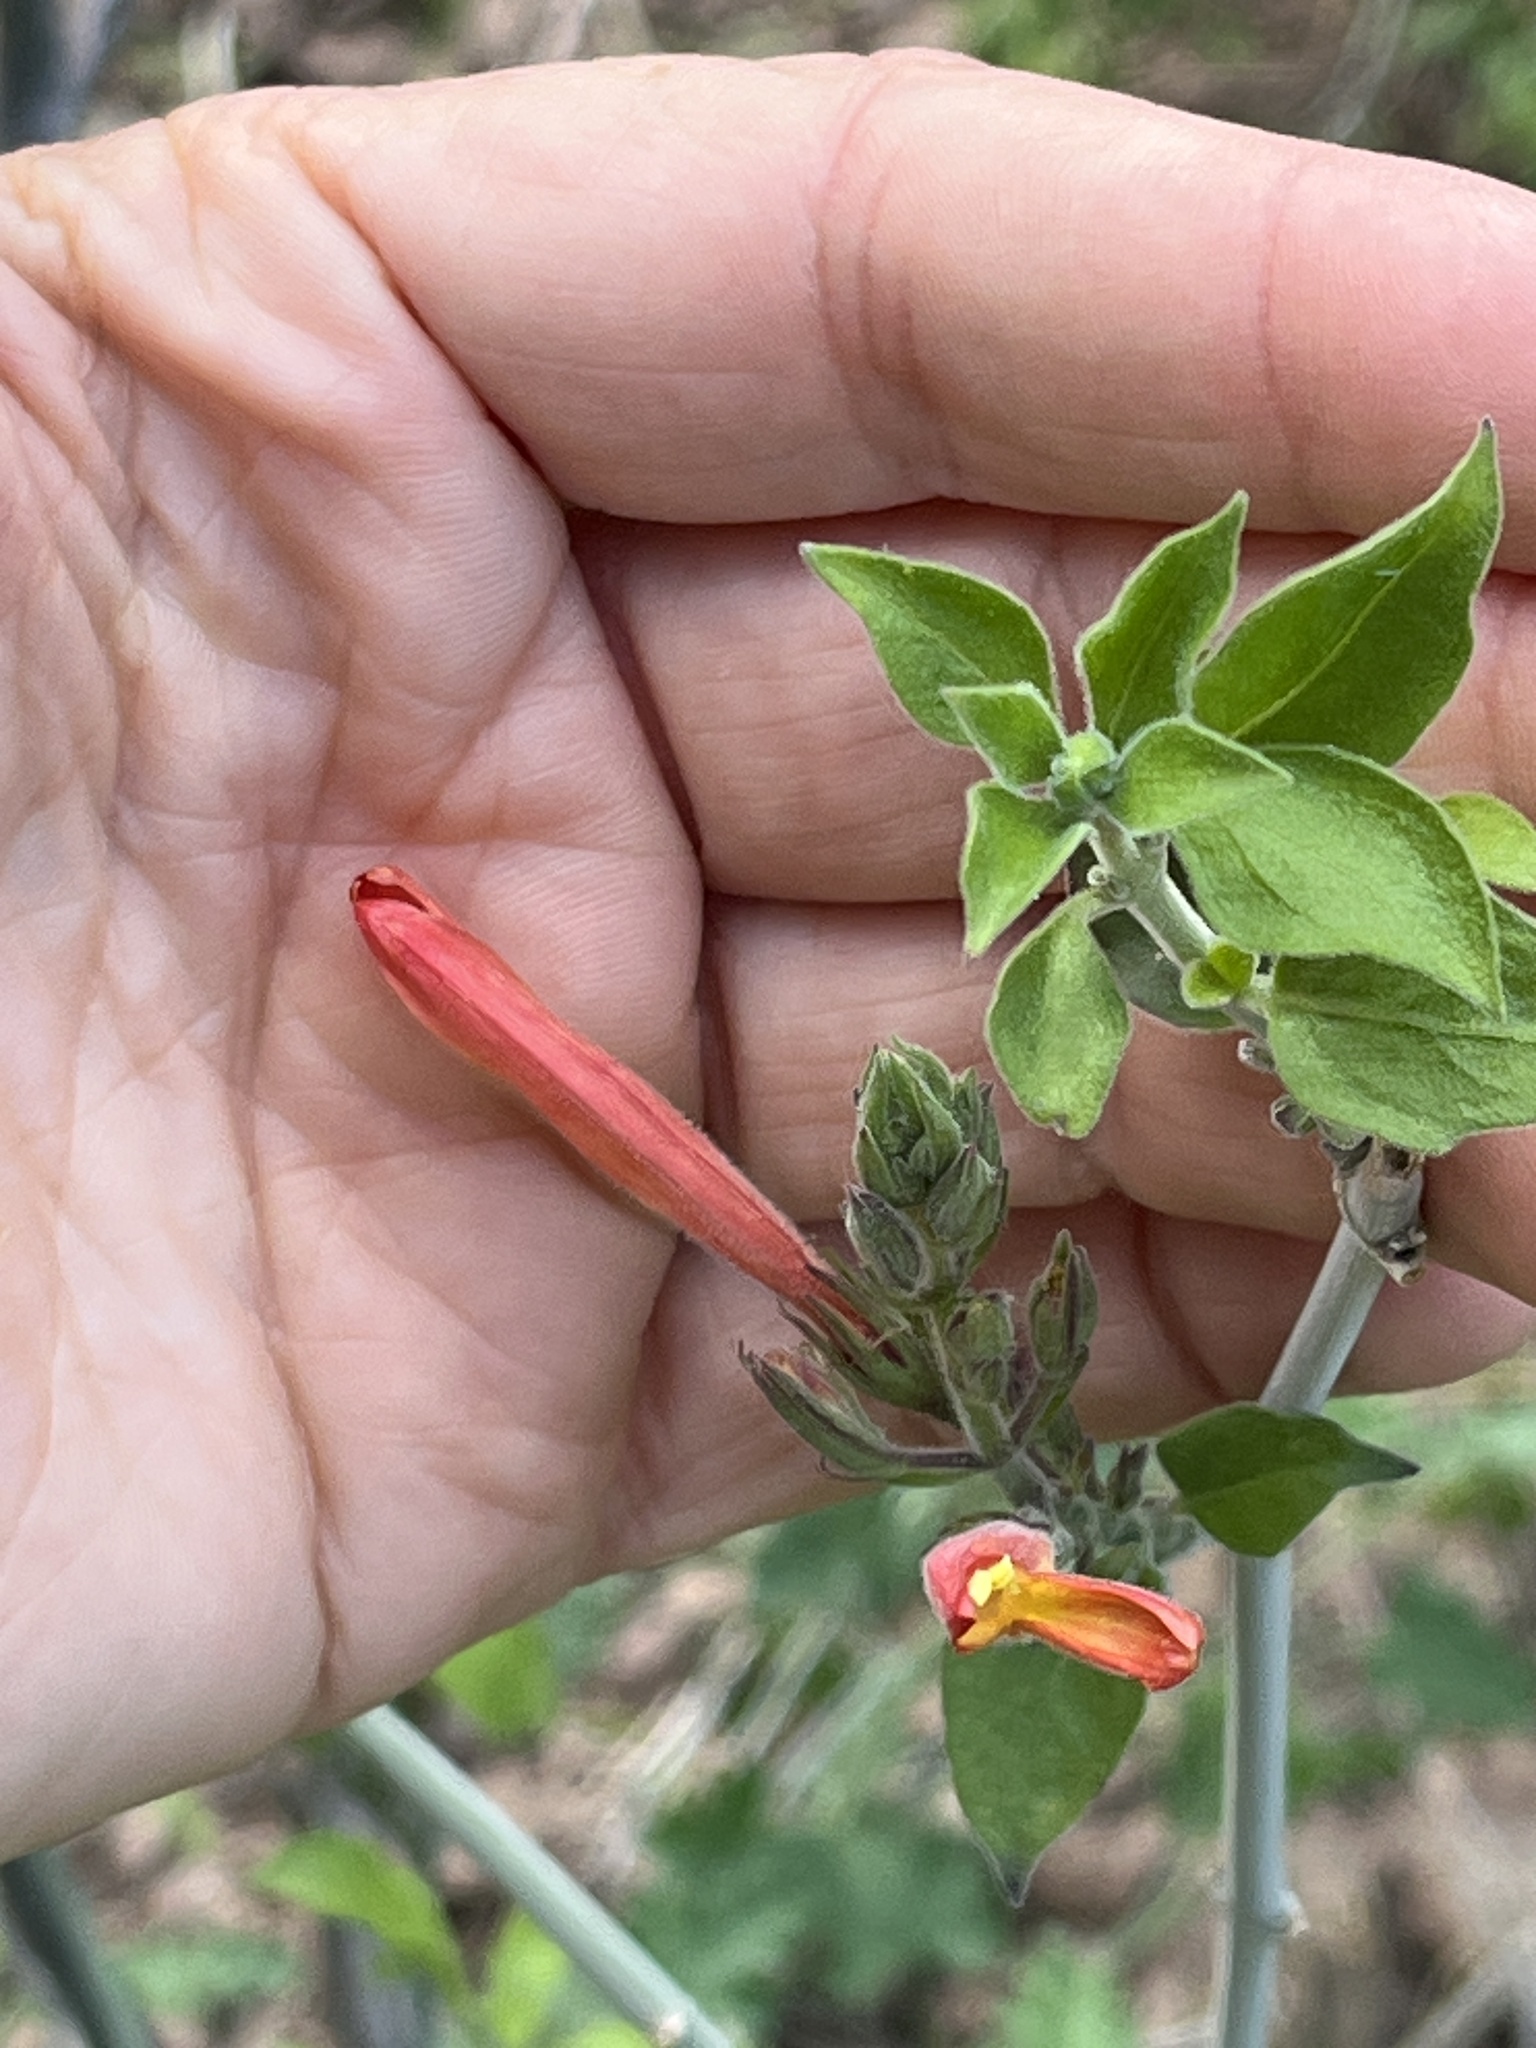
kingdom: Plantae
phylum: Tracheophyta
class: Magnoliopsida
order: Lamiales
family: Acanthaceae
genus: Justicia
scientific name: Justicia californica
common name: Chuparosa-honeysuckle
